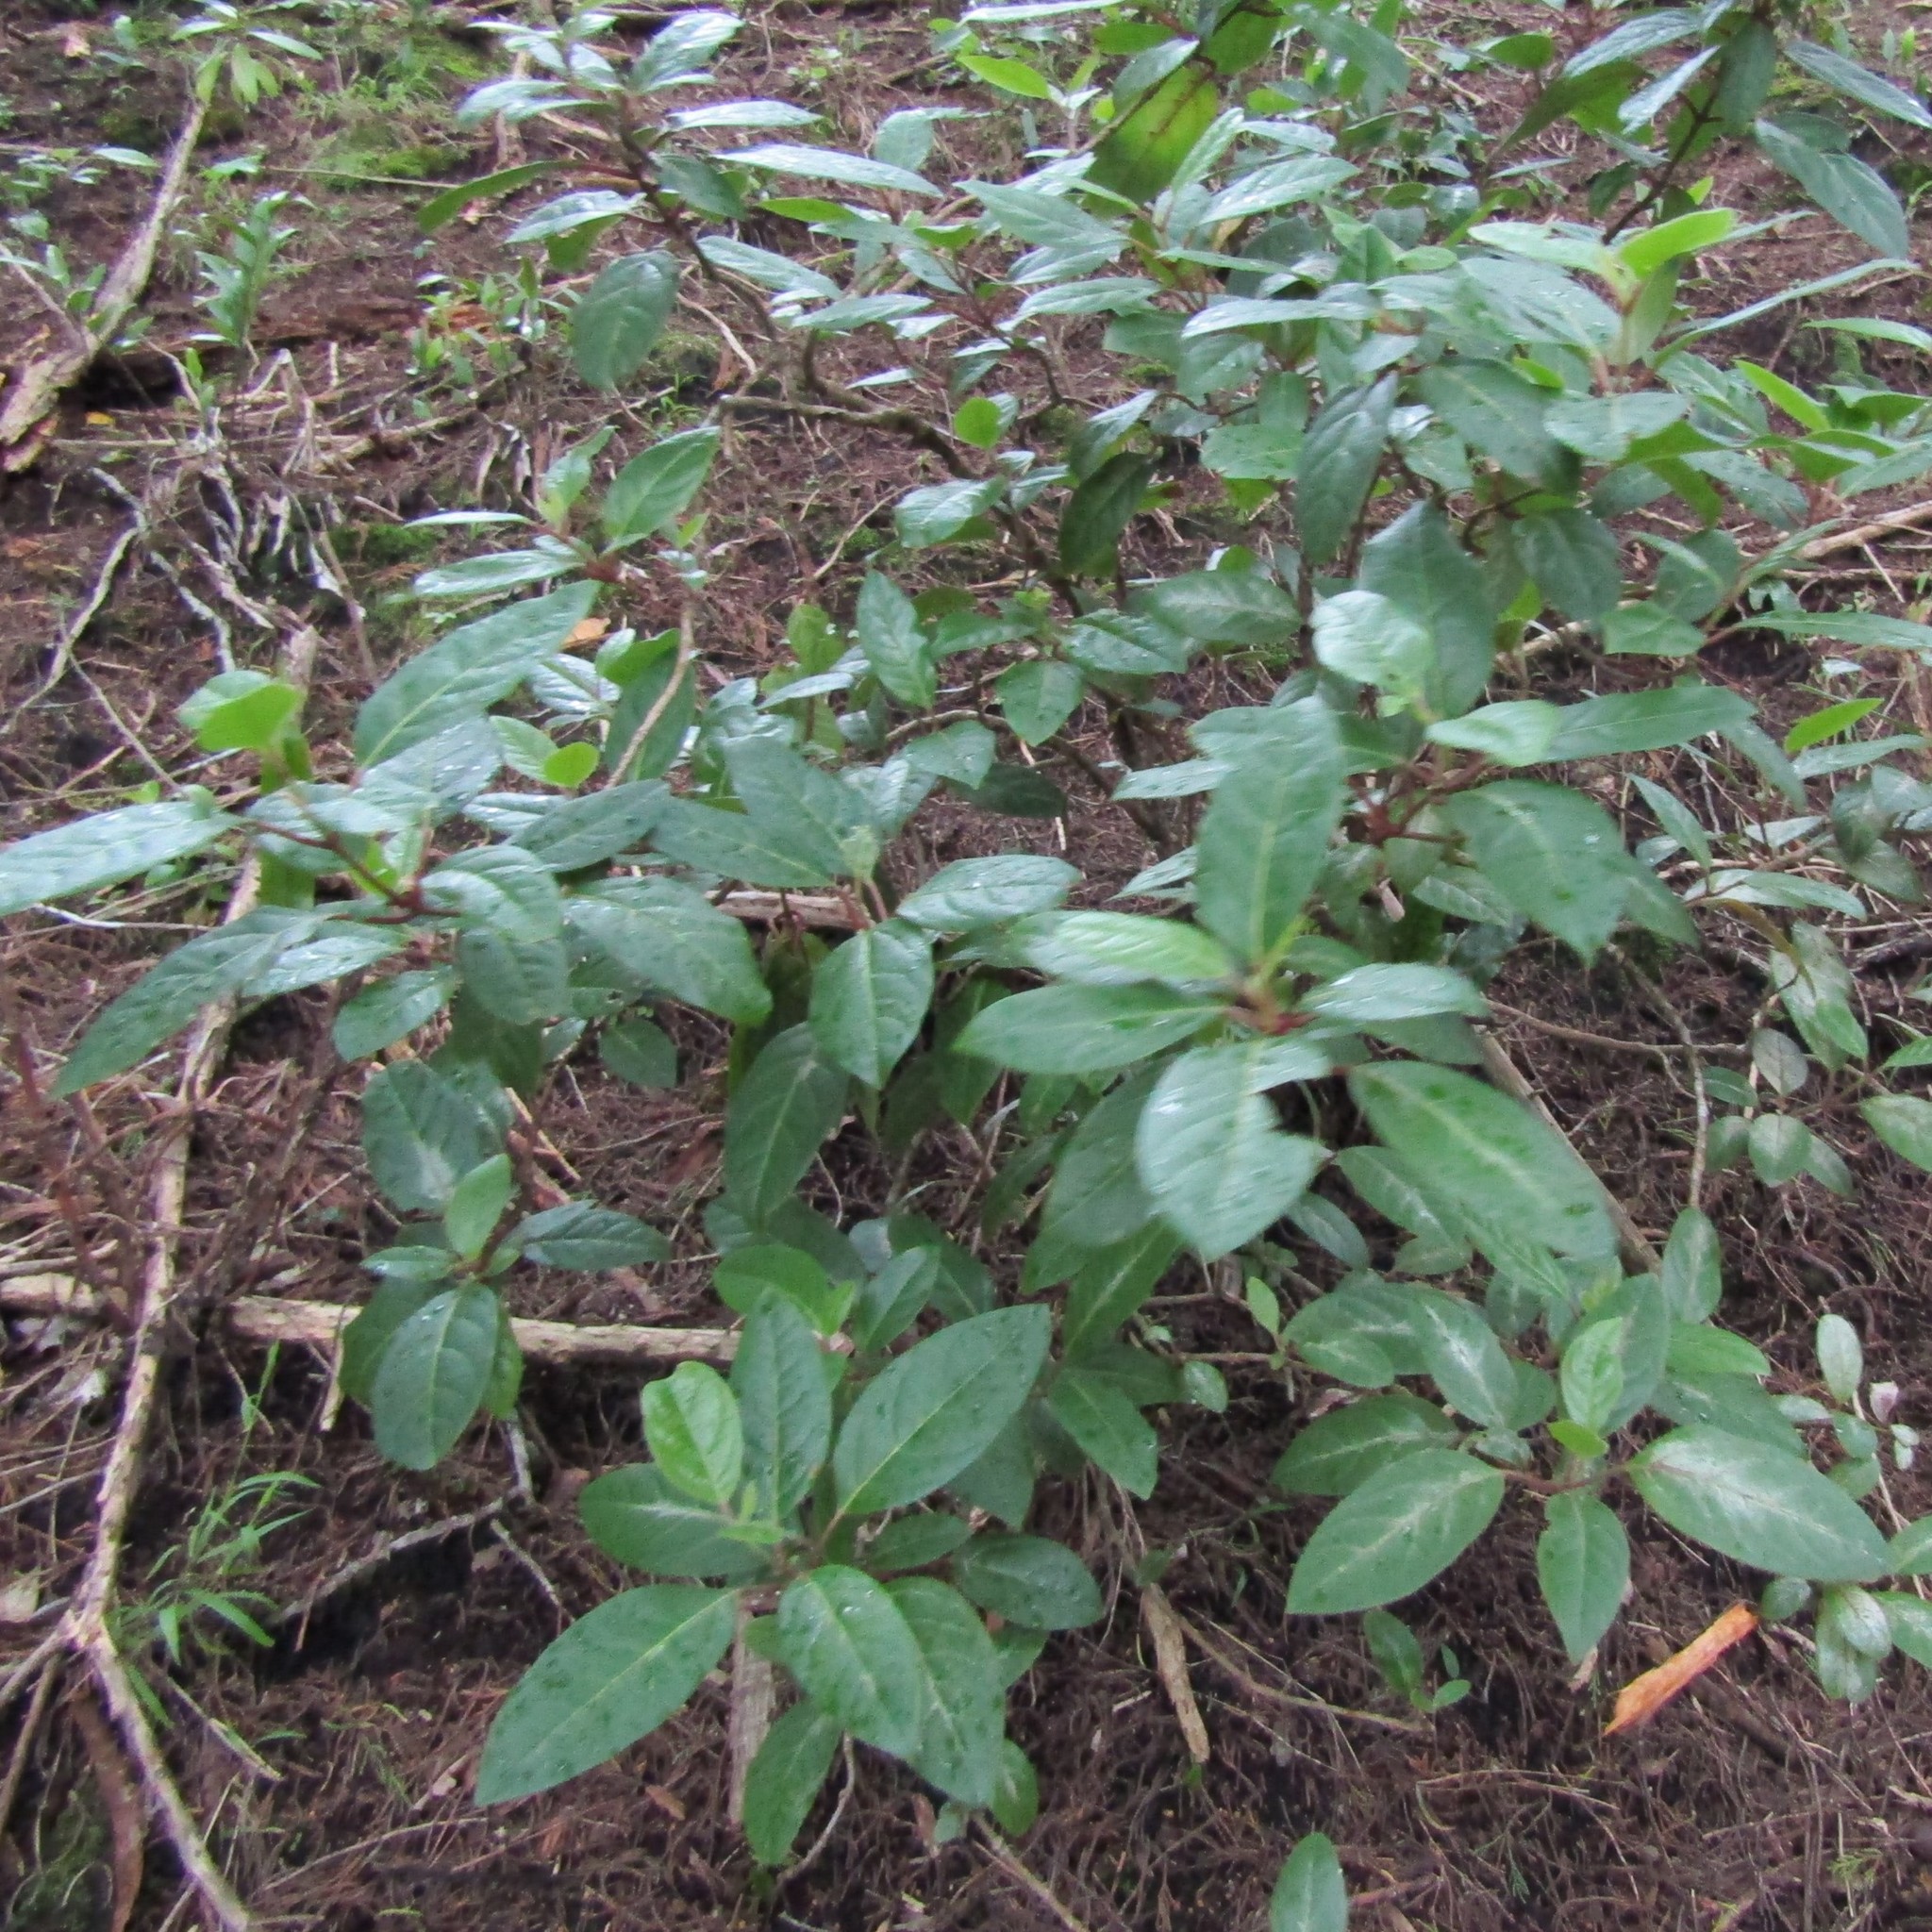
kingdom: Plantae
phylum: Tracheophyta
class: Magnoliopsida
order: Dipsacales
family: Viburnaceae
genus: Viburnum
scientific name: Viburnum tinus
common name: Laurustinus
